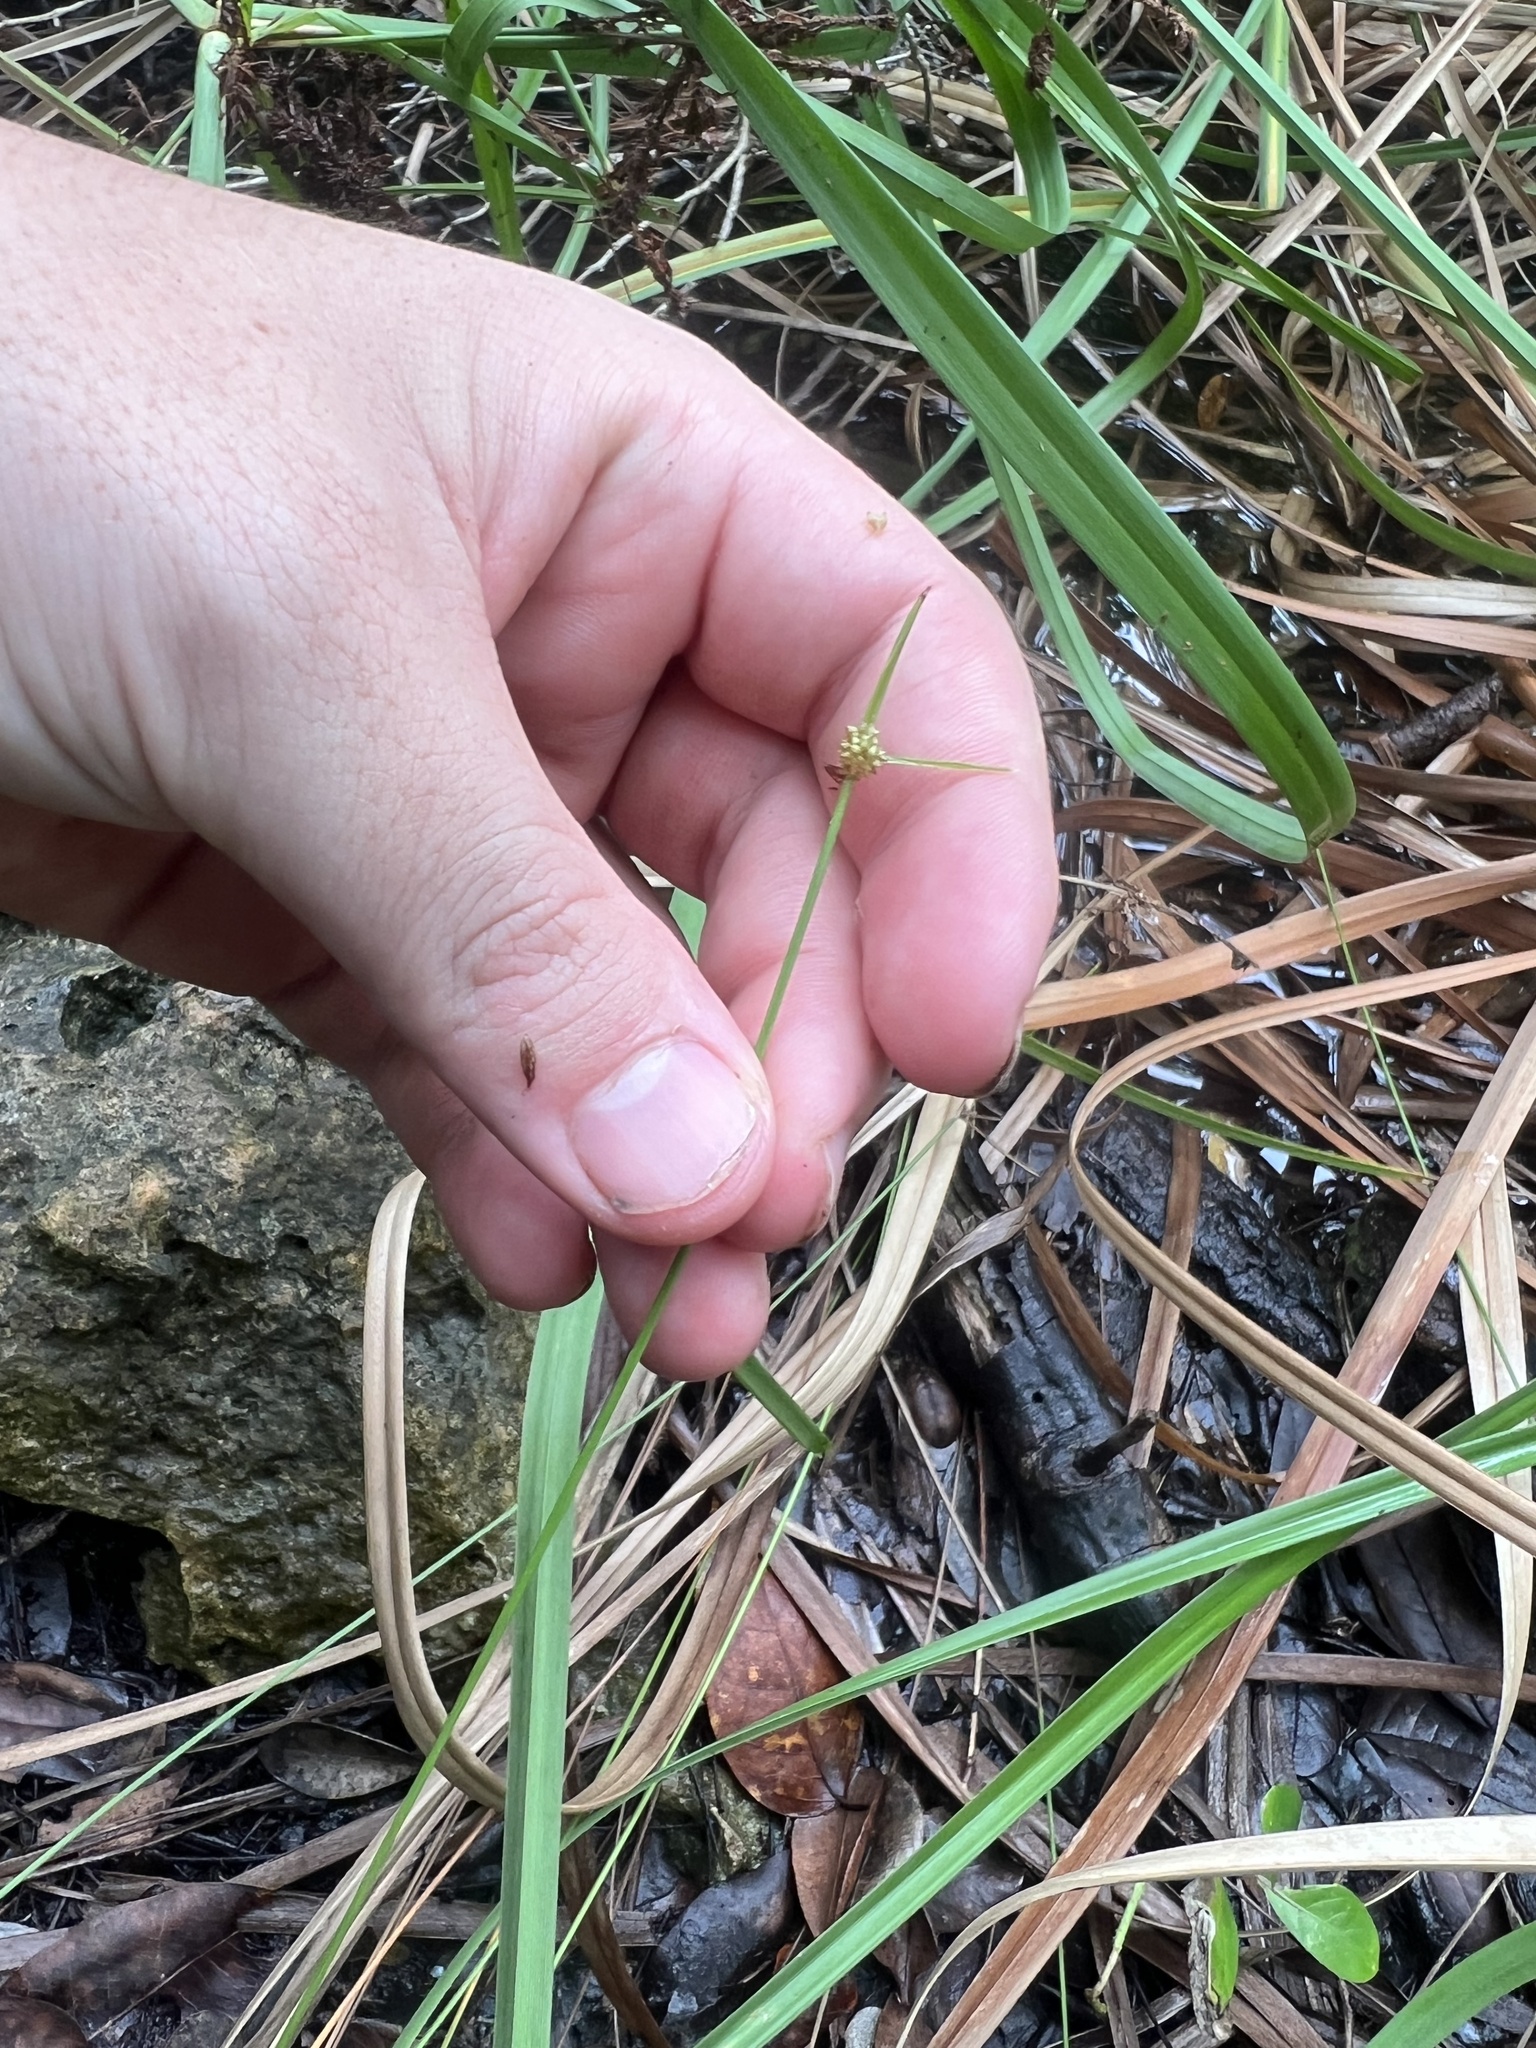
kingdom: Plantae
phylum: Tracheophyta
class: Liliopsida
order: Poales
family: Cyperaceae
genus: Cyperus
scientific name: Cyperus brevifolius
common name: Globe kyllinga
